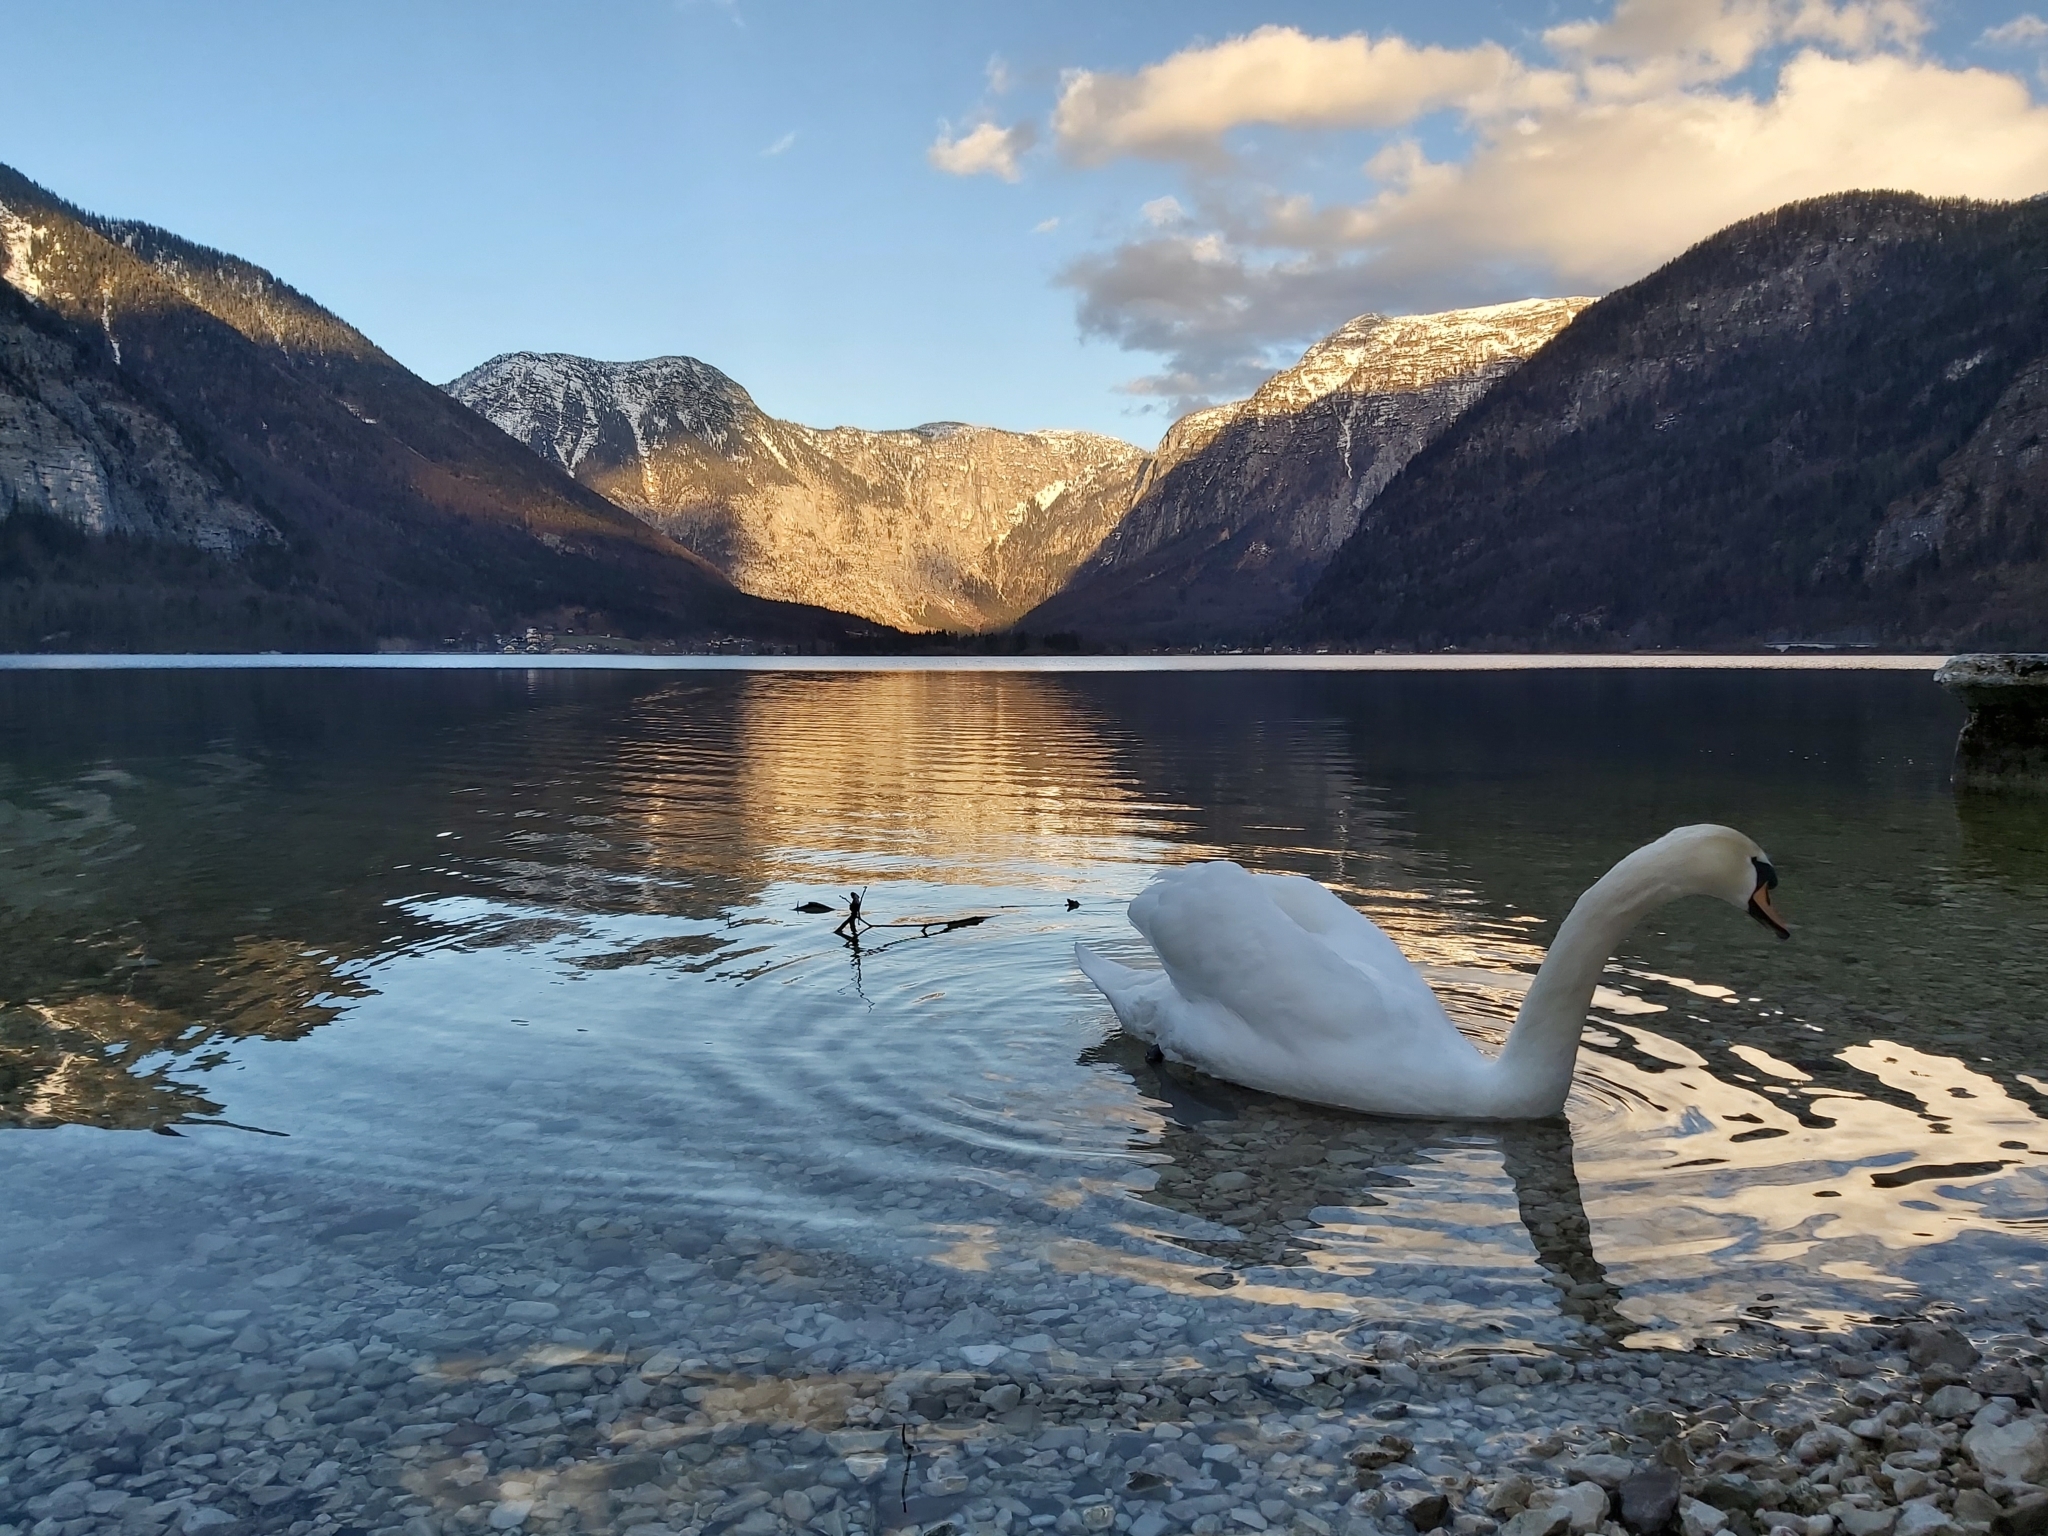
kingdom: Animalia
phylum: Chordata
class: Aves
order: Anseriformes
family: Anatidae
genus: Cygnus
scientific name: Cygnus olor
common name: Mute swan
